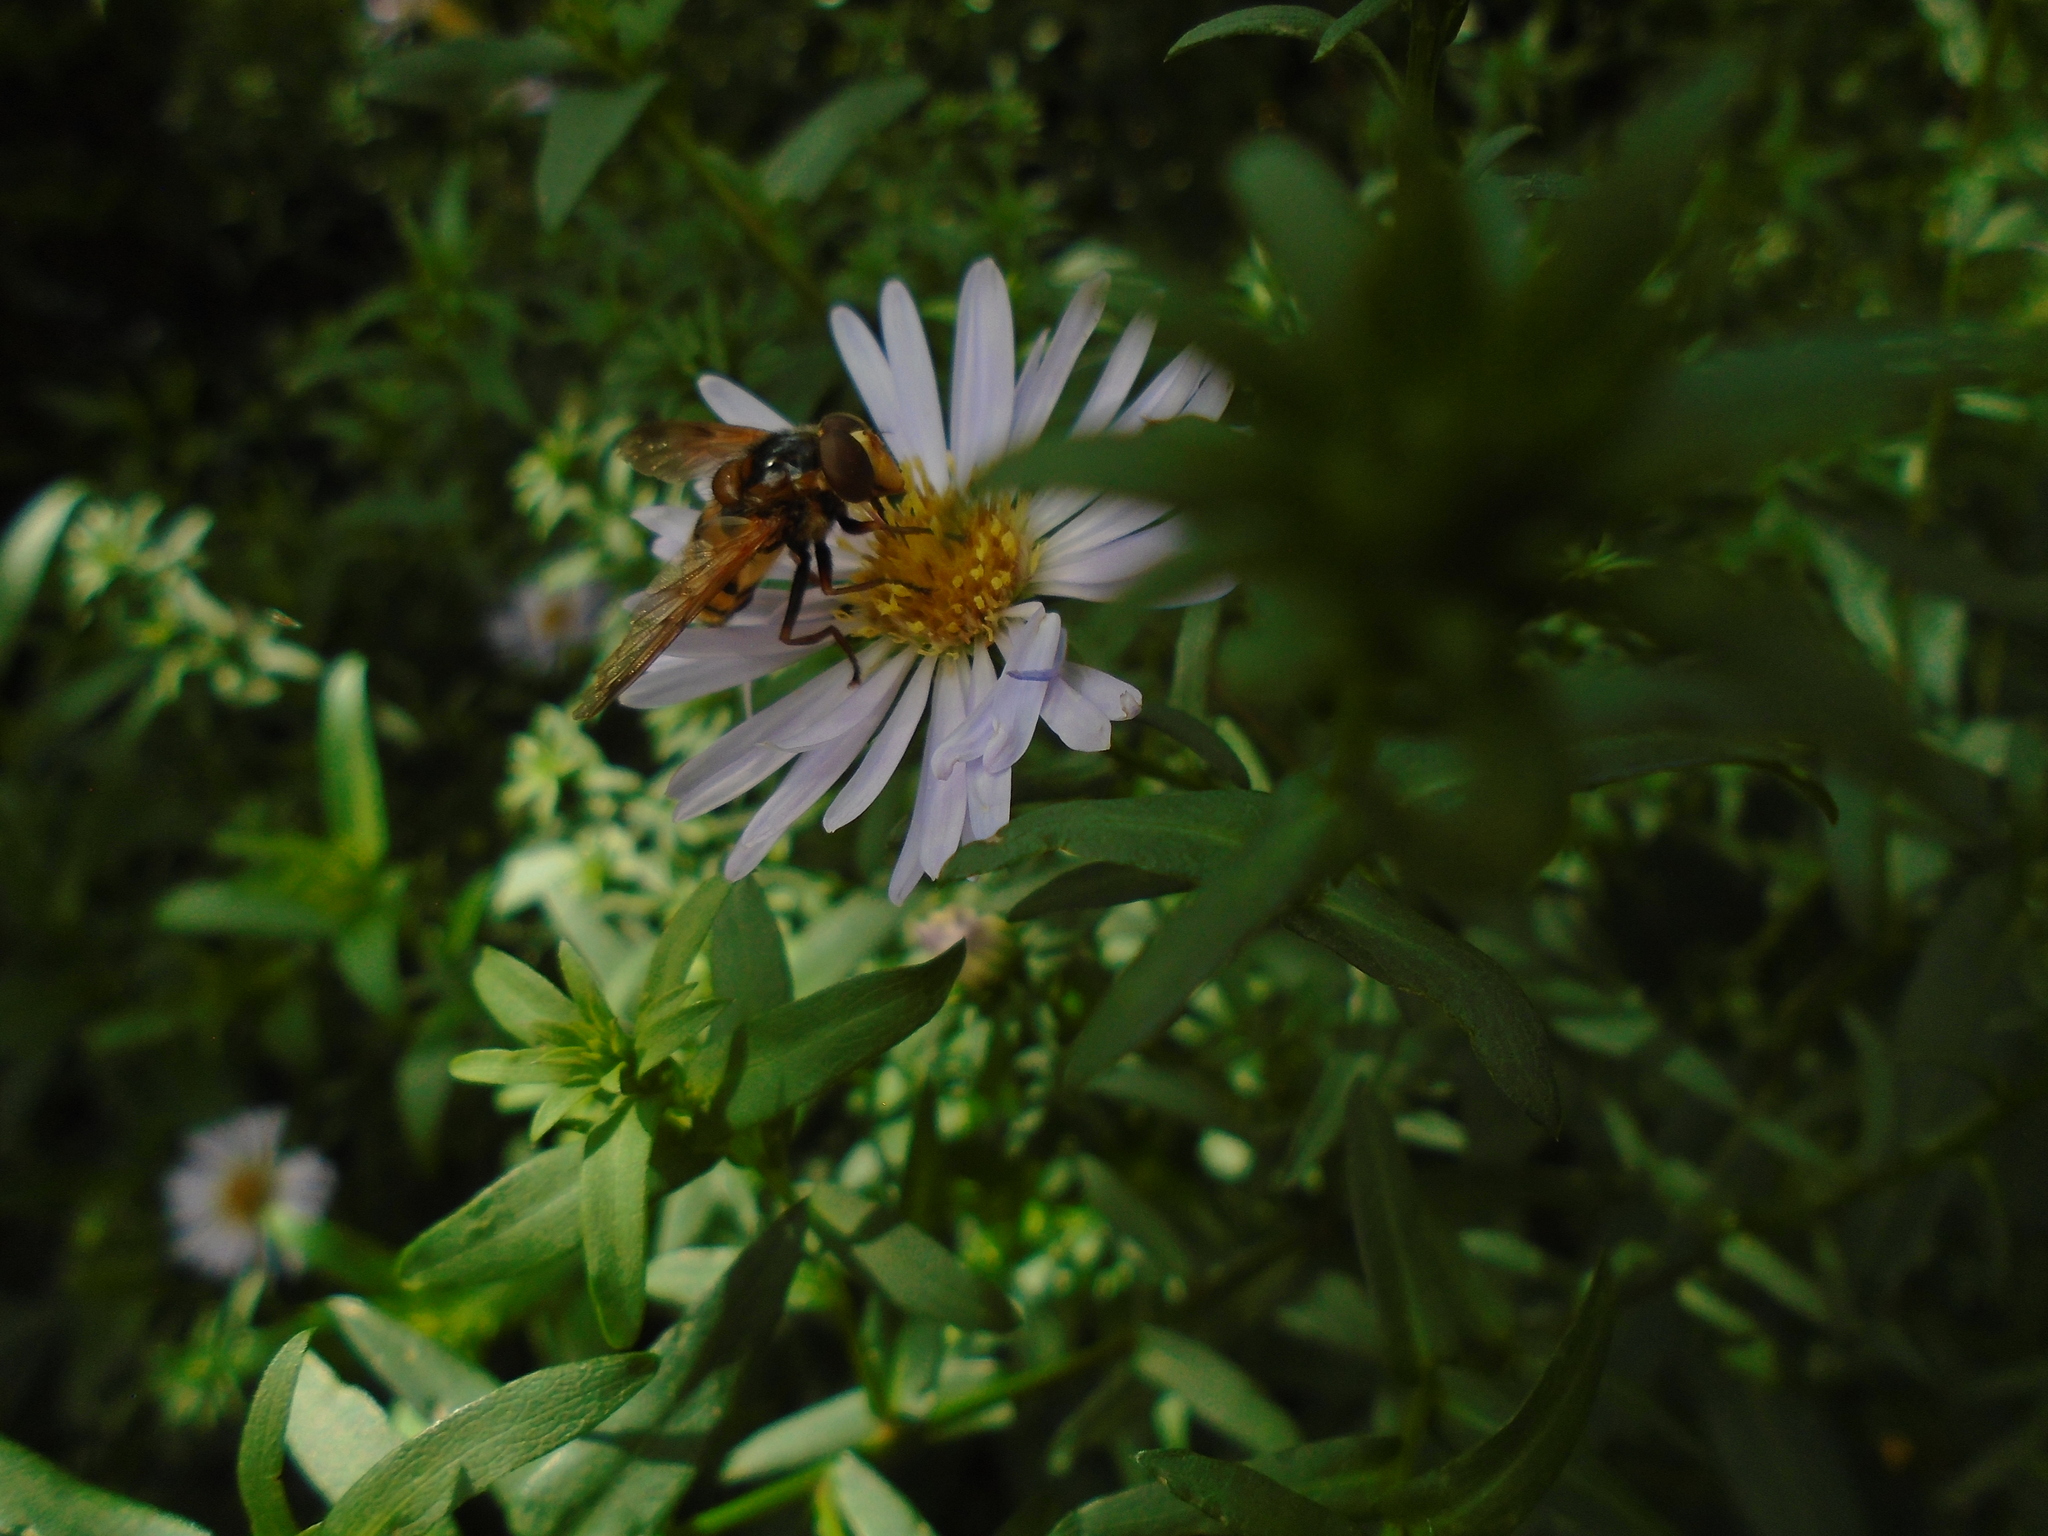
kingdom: Animalia
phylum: Arthropoda
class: Insecta
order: Diptera
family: Syrphidae
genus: Volucella
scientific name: Volucella inanis
